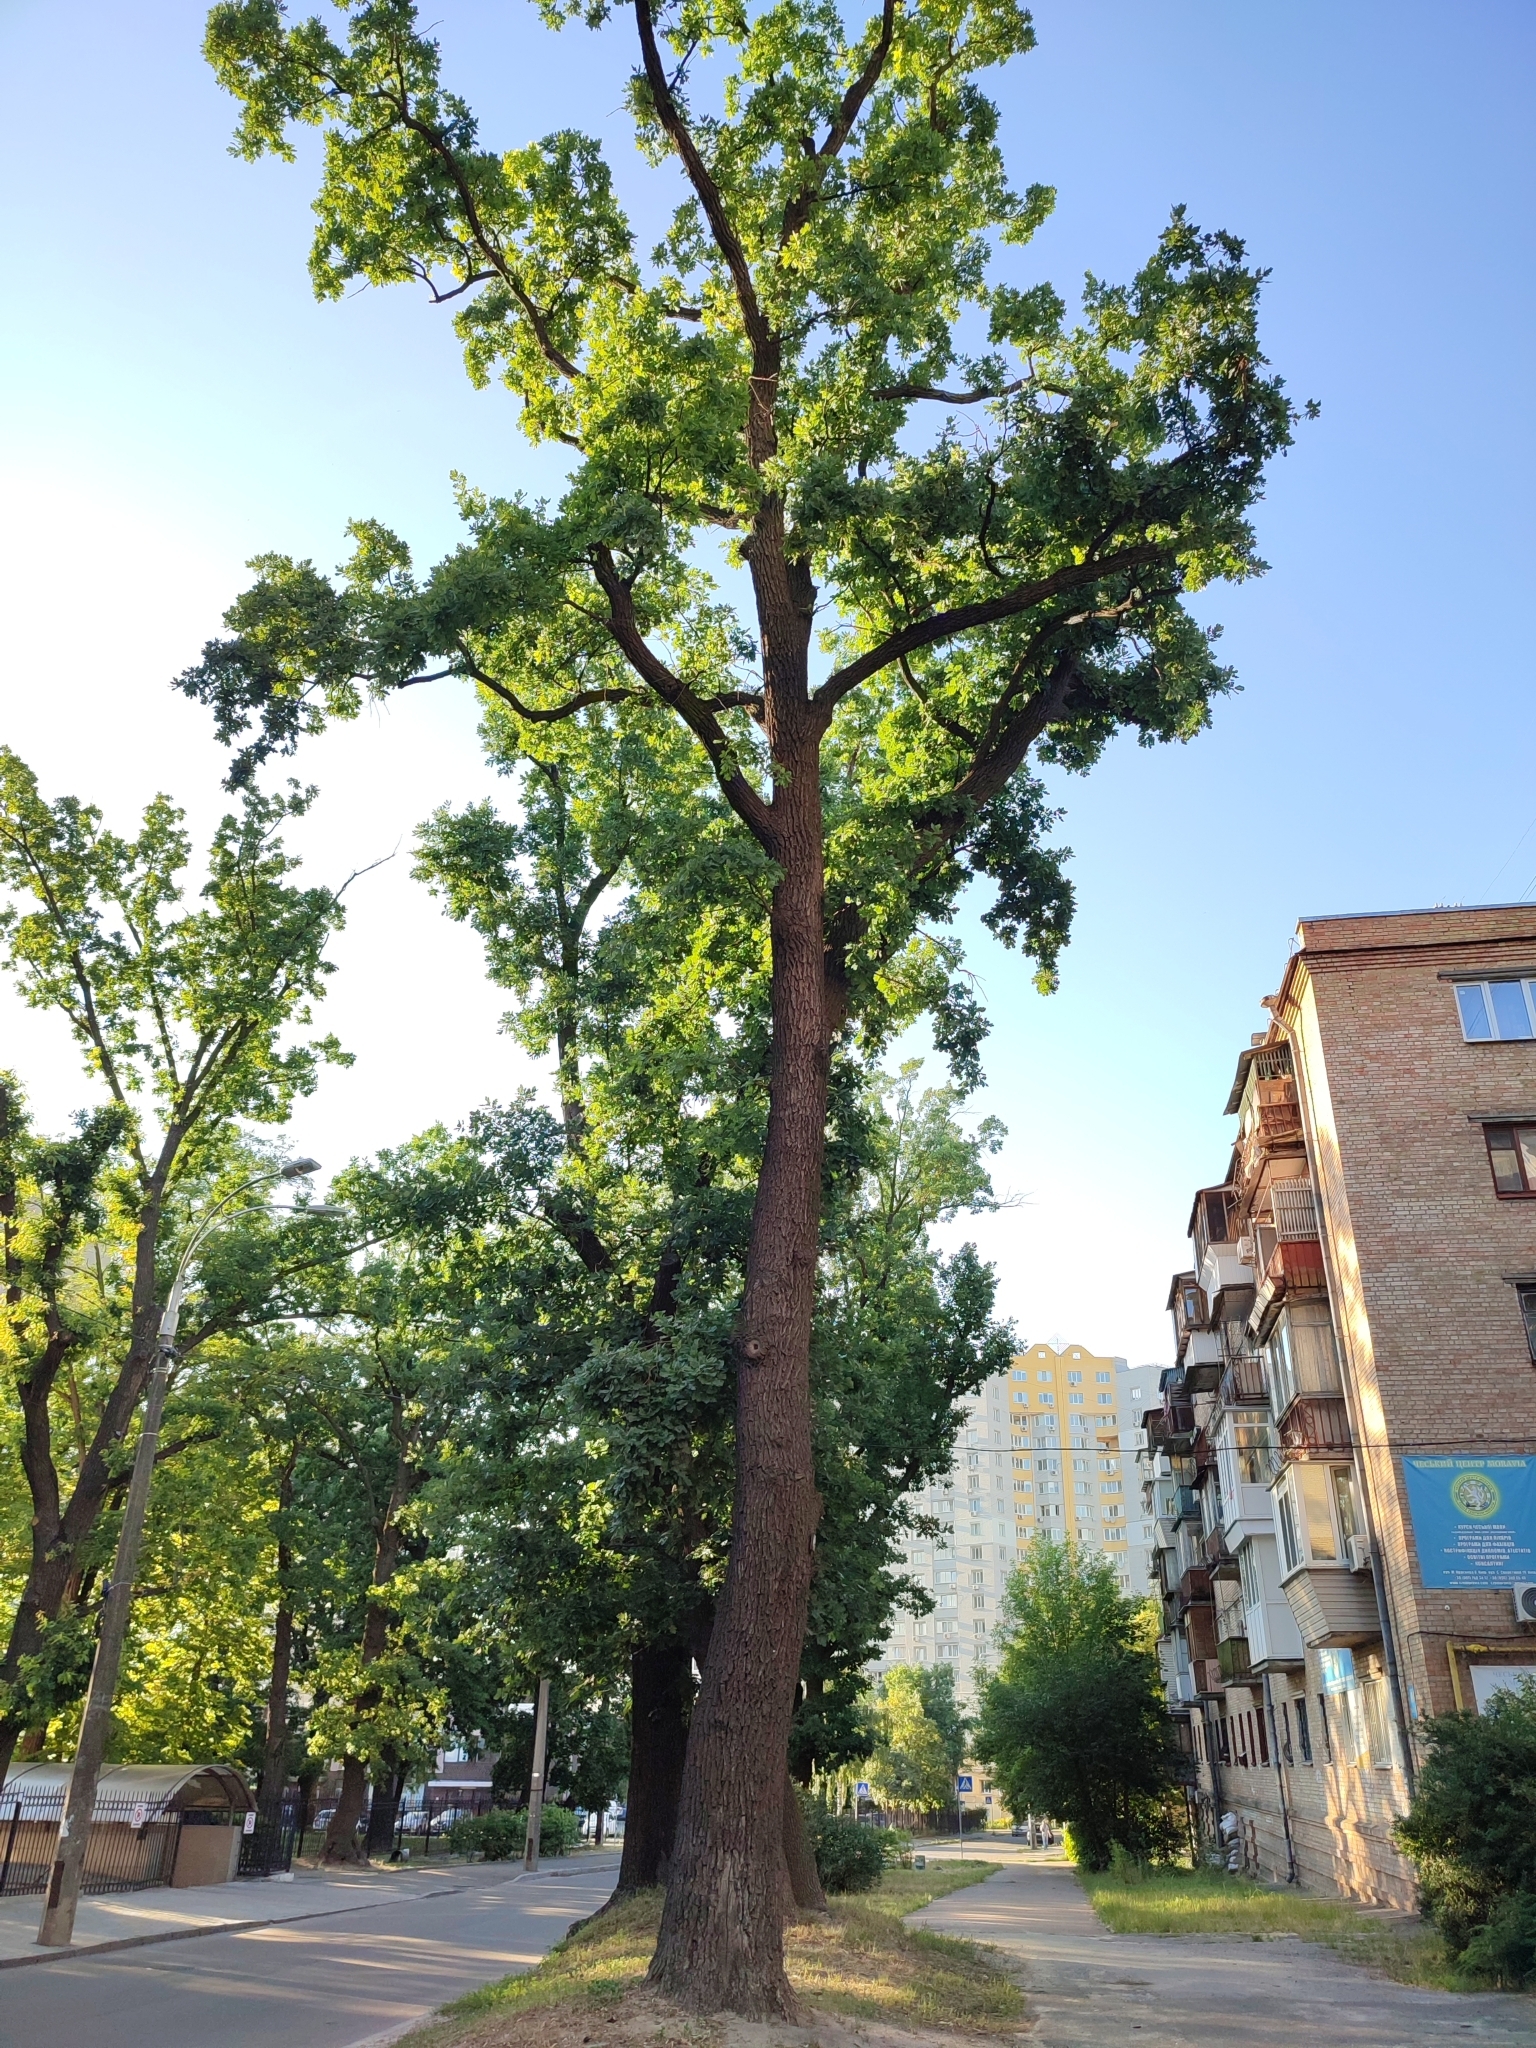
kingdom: Plantae
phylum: Tracheophyta
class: Magnoliopsida
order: Fagales
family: Fagaceae
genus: Quercus
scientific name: Quercus robur
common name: Pedunculate oak
